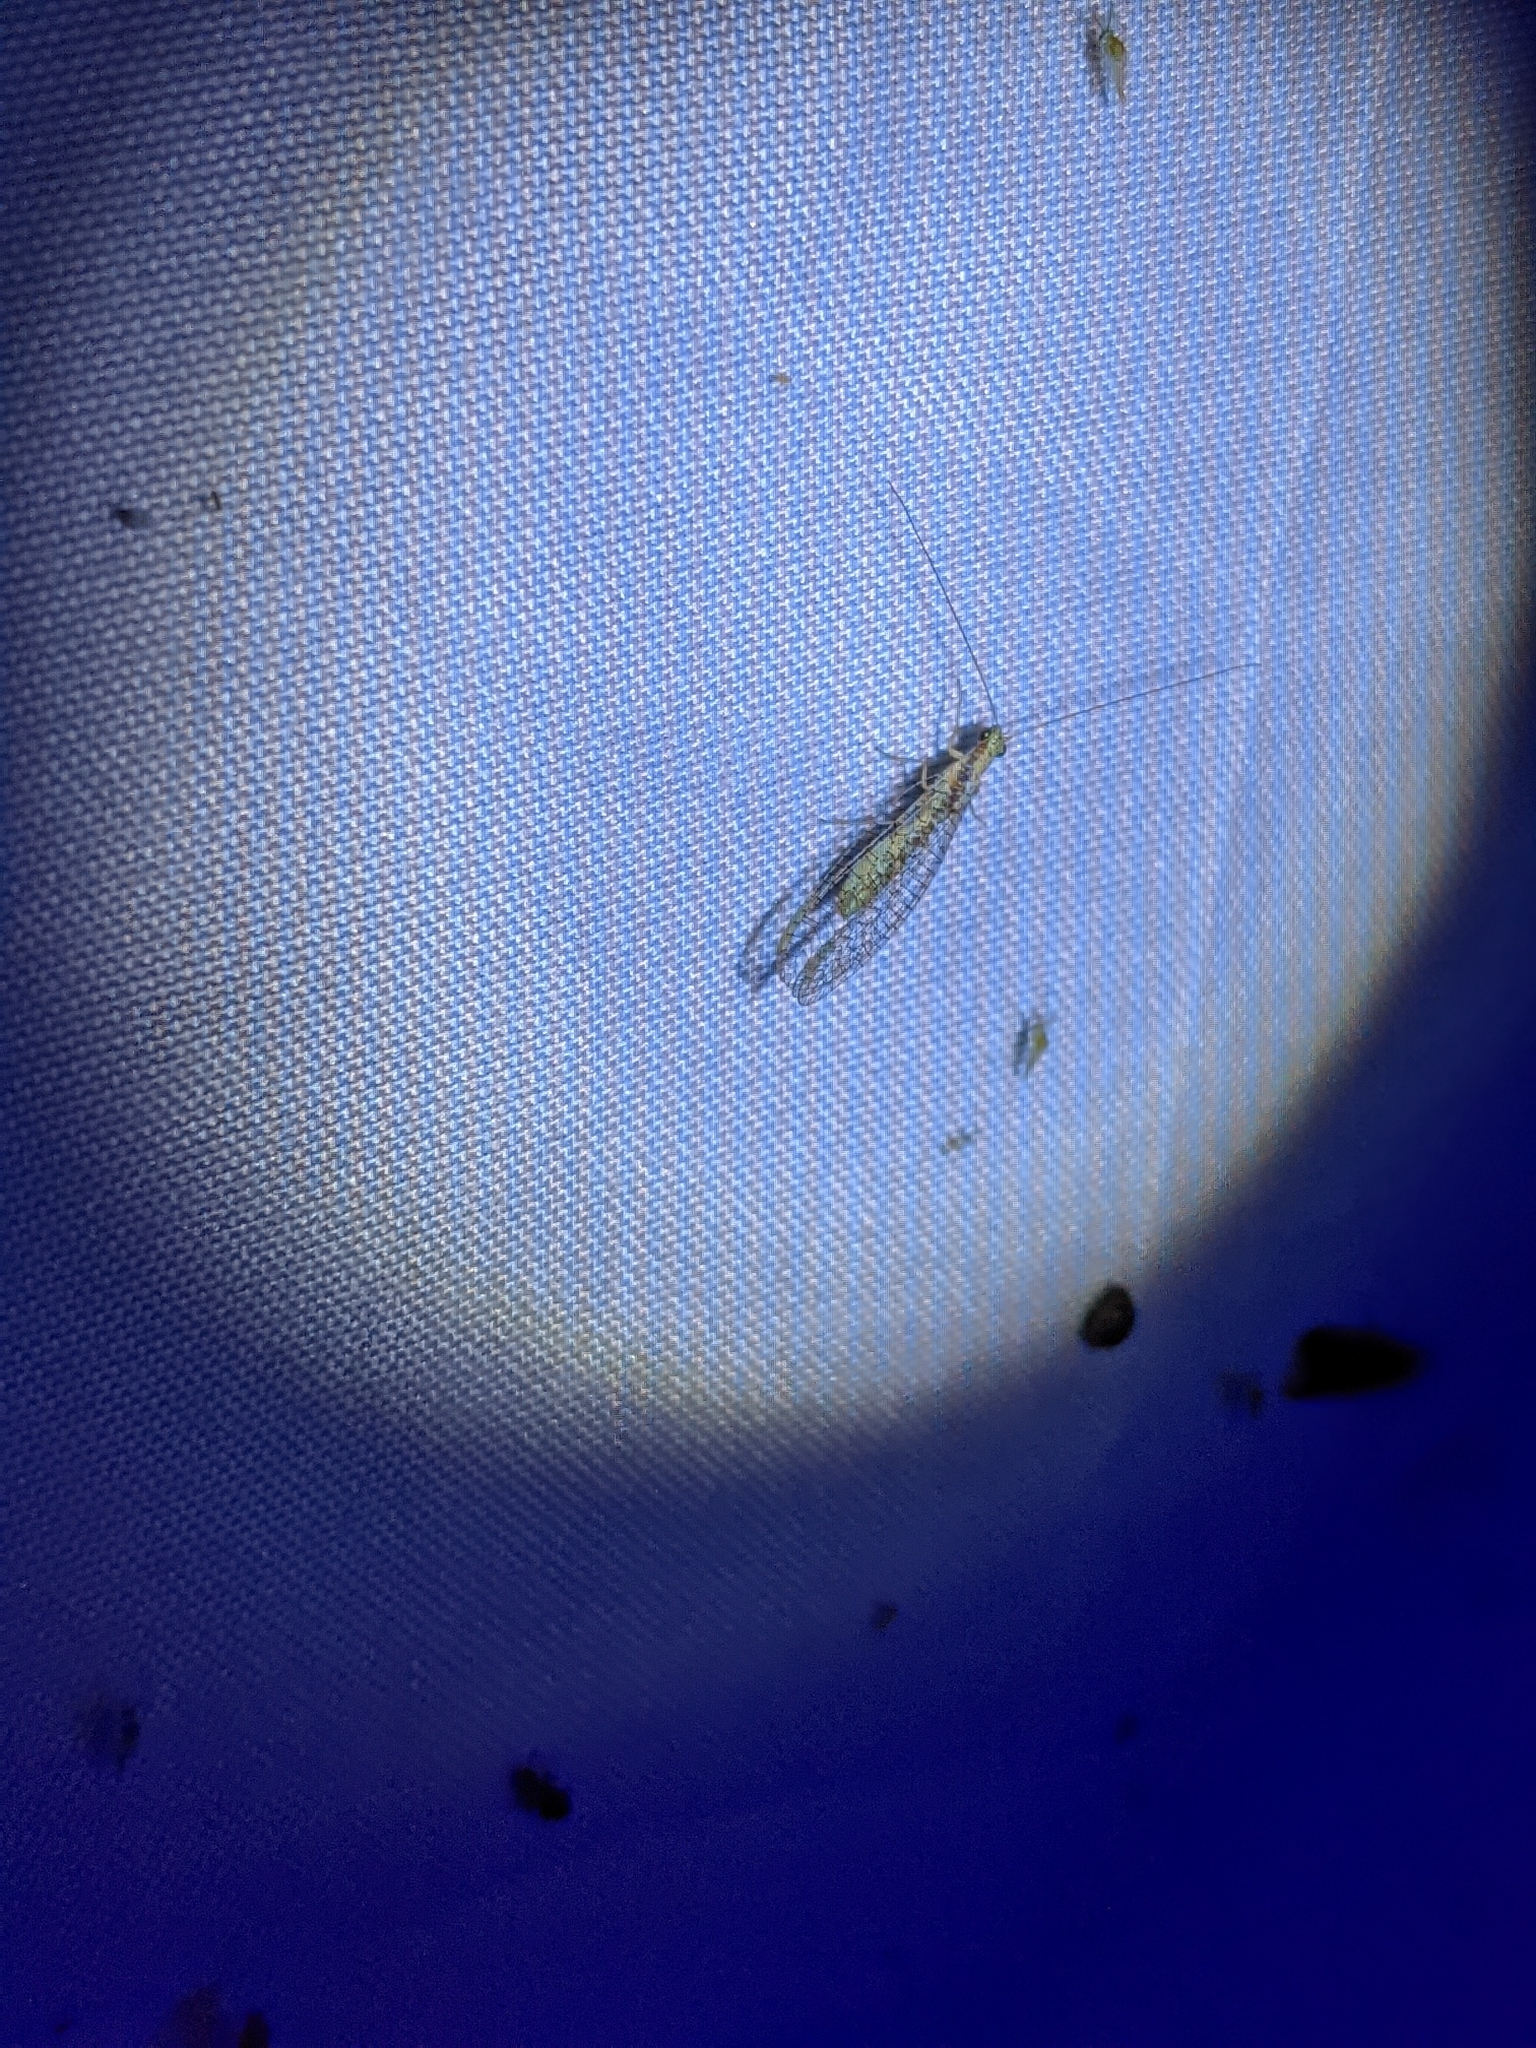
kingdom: Animalia
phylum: Arthropoda
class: Insecta
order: Neuroptera
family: Chrysopidae
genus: Eremochrysa
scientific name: Eremochrysa
